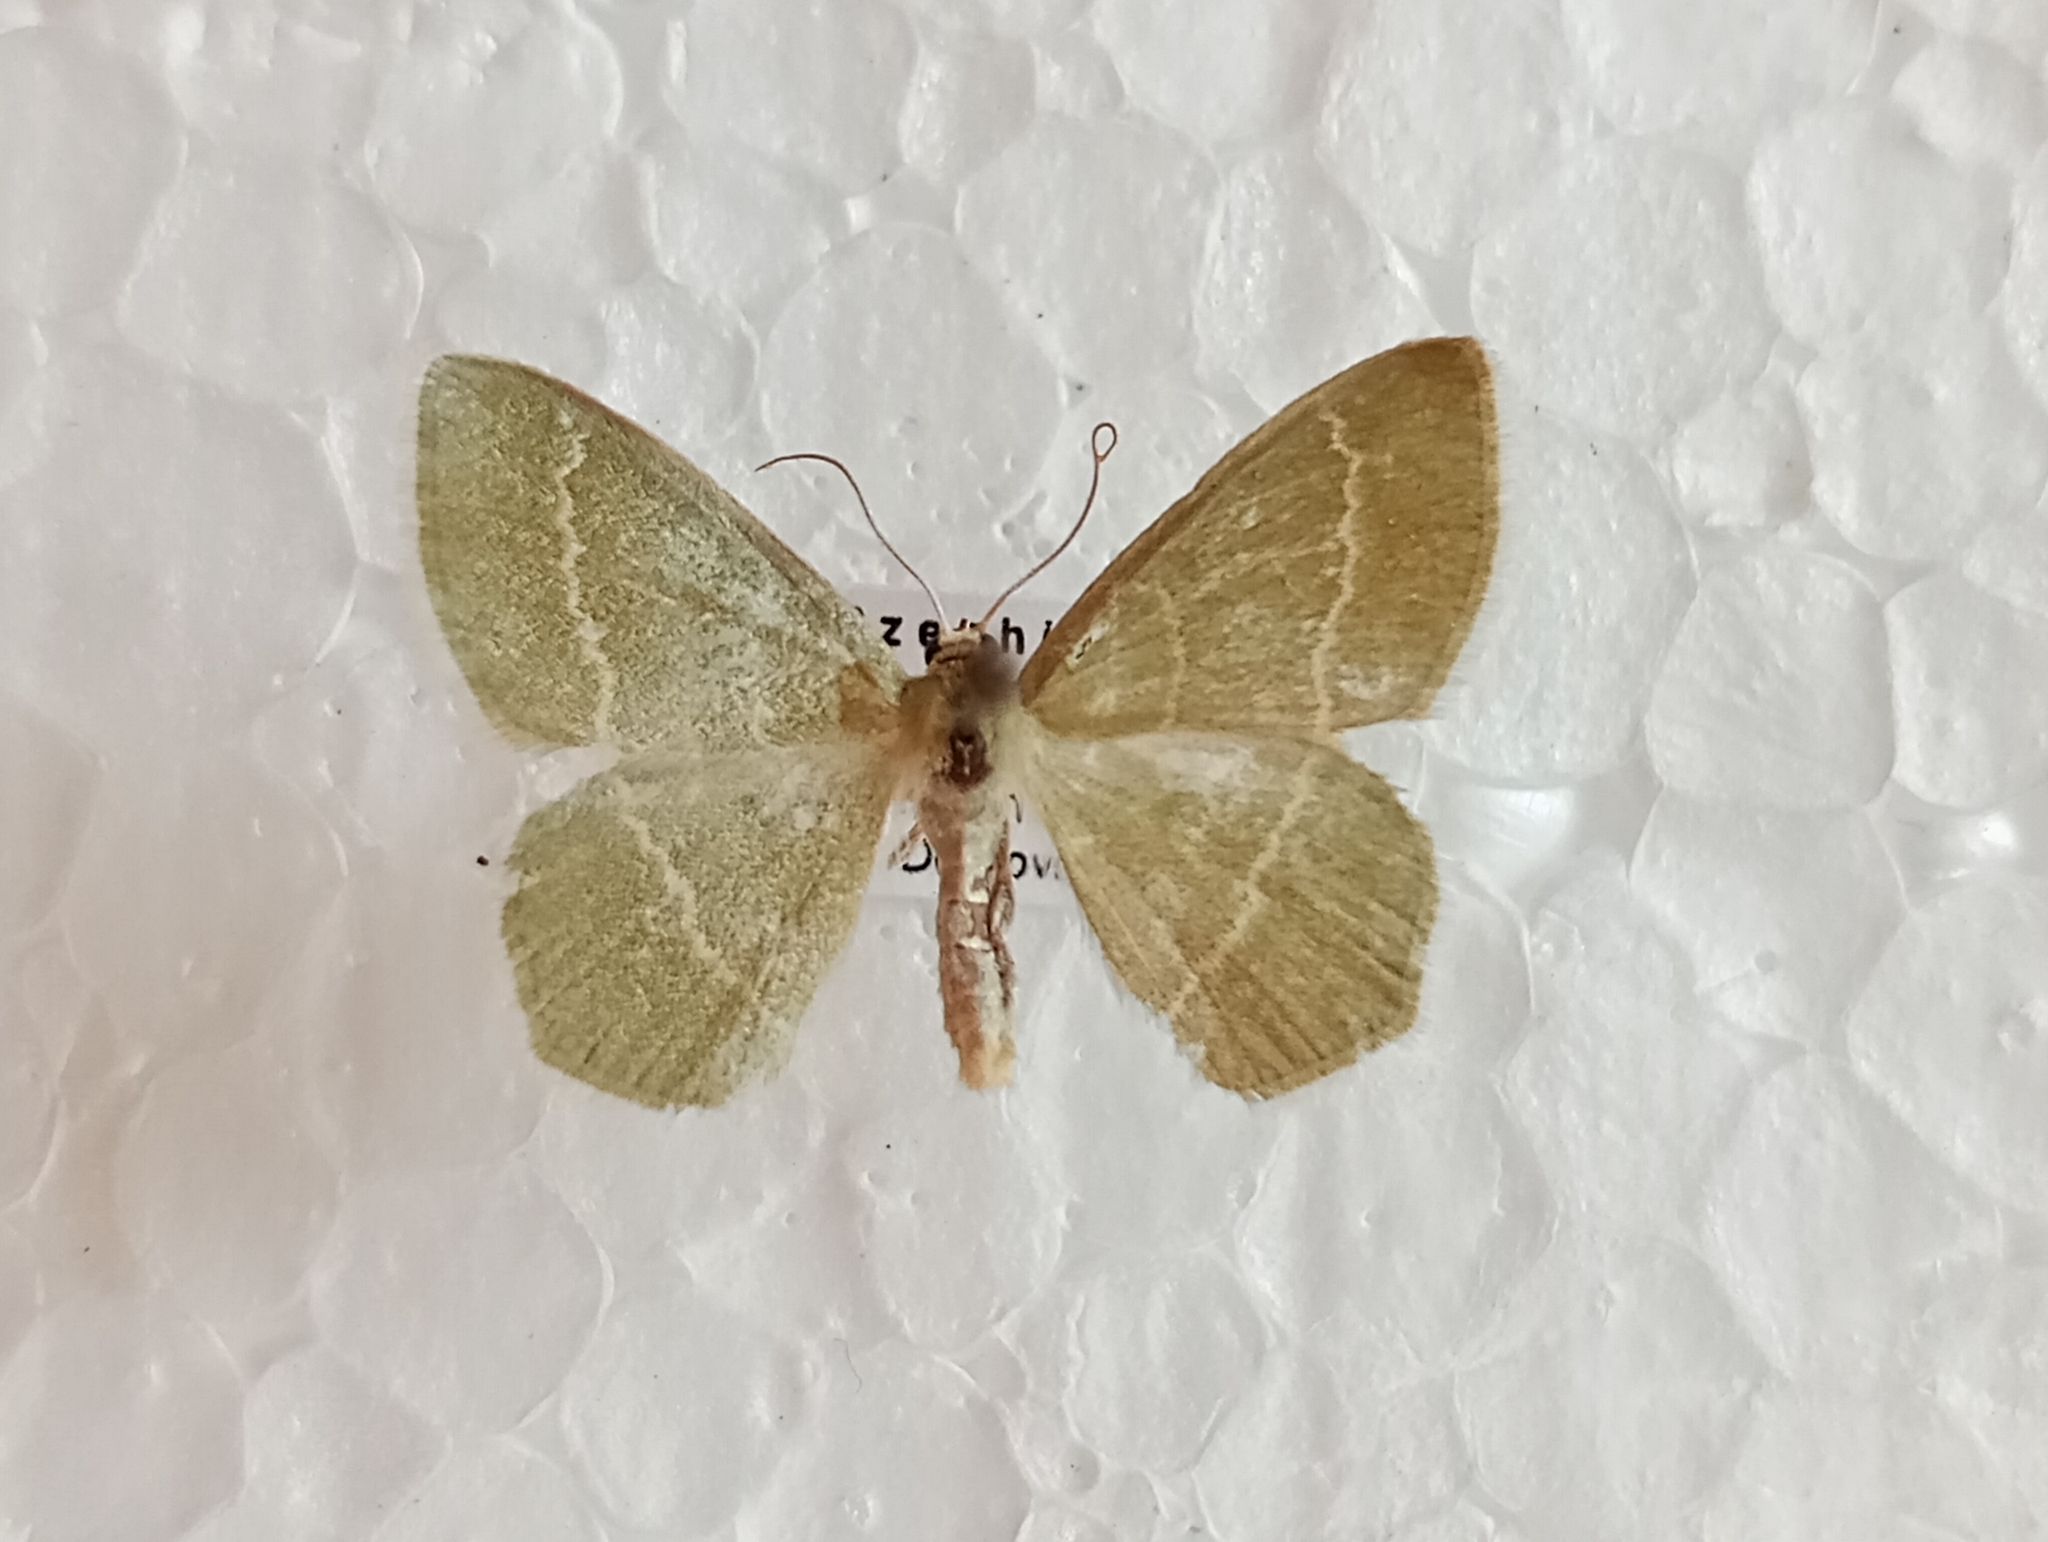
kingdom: Animalia
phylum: Arthropoda
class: Insecta
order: Lepidoptera
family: Geometridae
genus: Chlorissa
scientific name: Chlorissa cloraria
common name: Southern grass emerald
